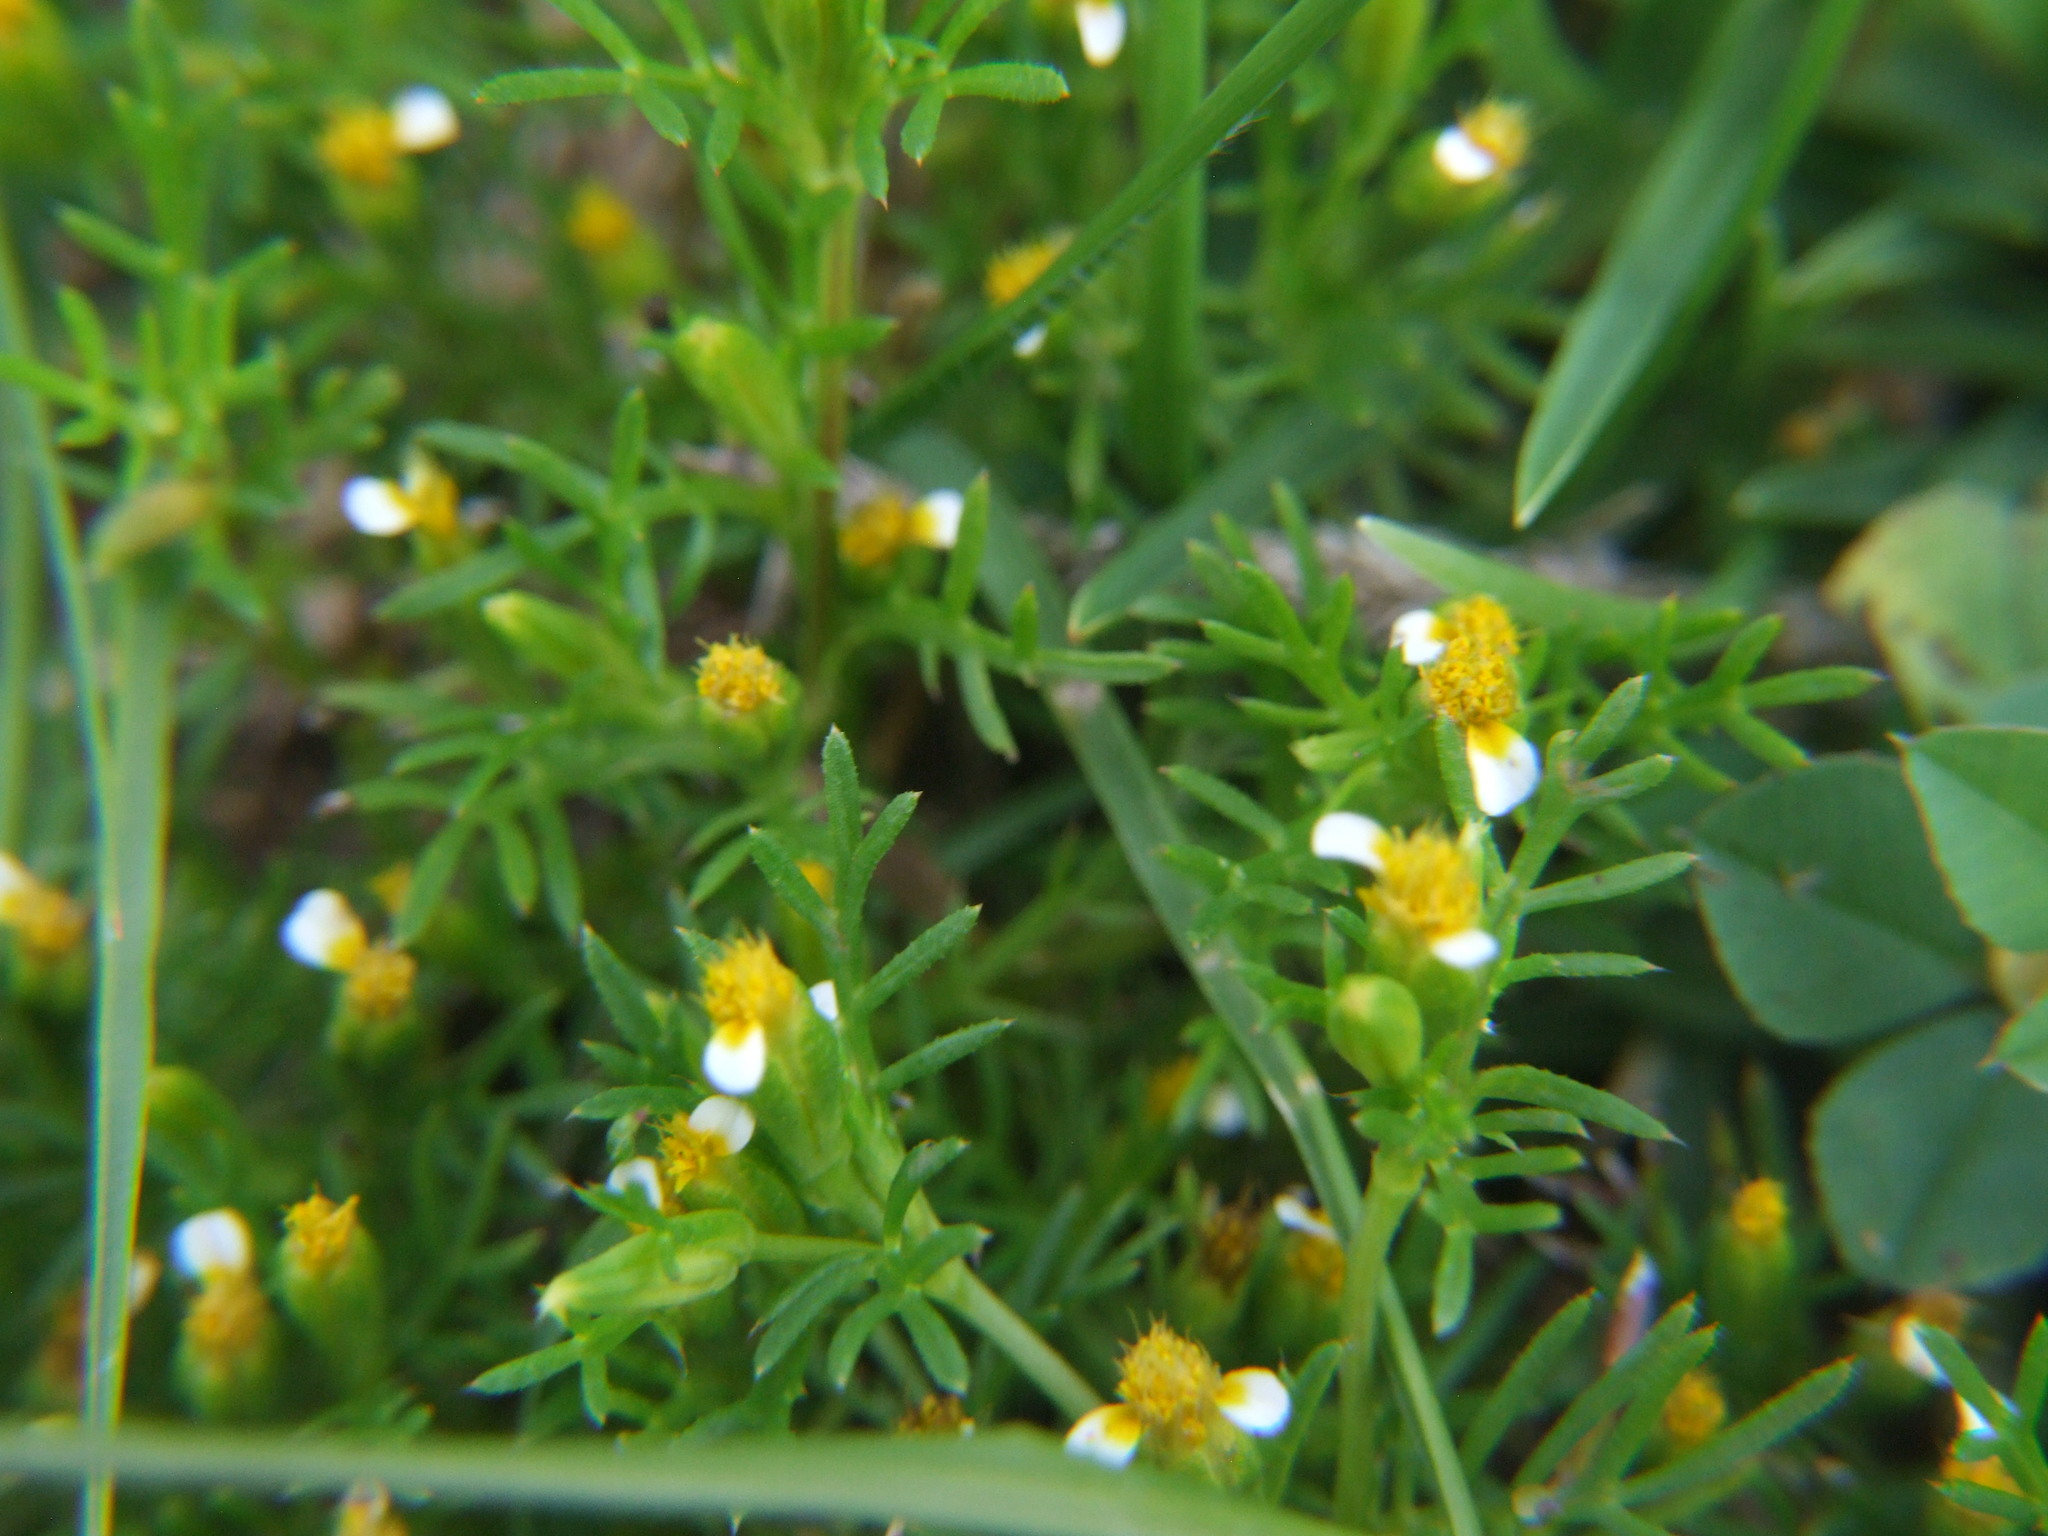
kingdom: Plantae
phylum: Tracheophyta
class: Magnoliopsida
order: Asterales
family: Asteraceae
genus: Tagetes
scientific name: Tagetes filifolia
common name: Lesser marigold
